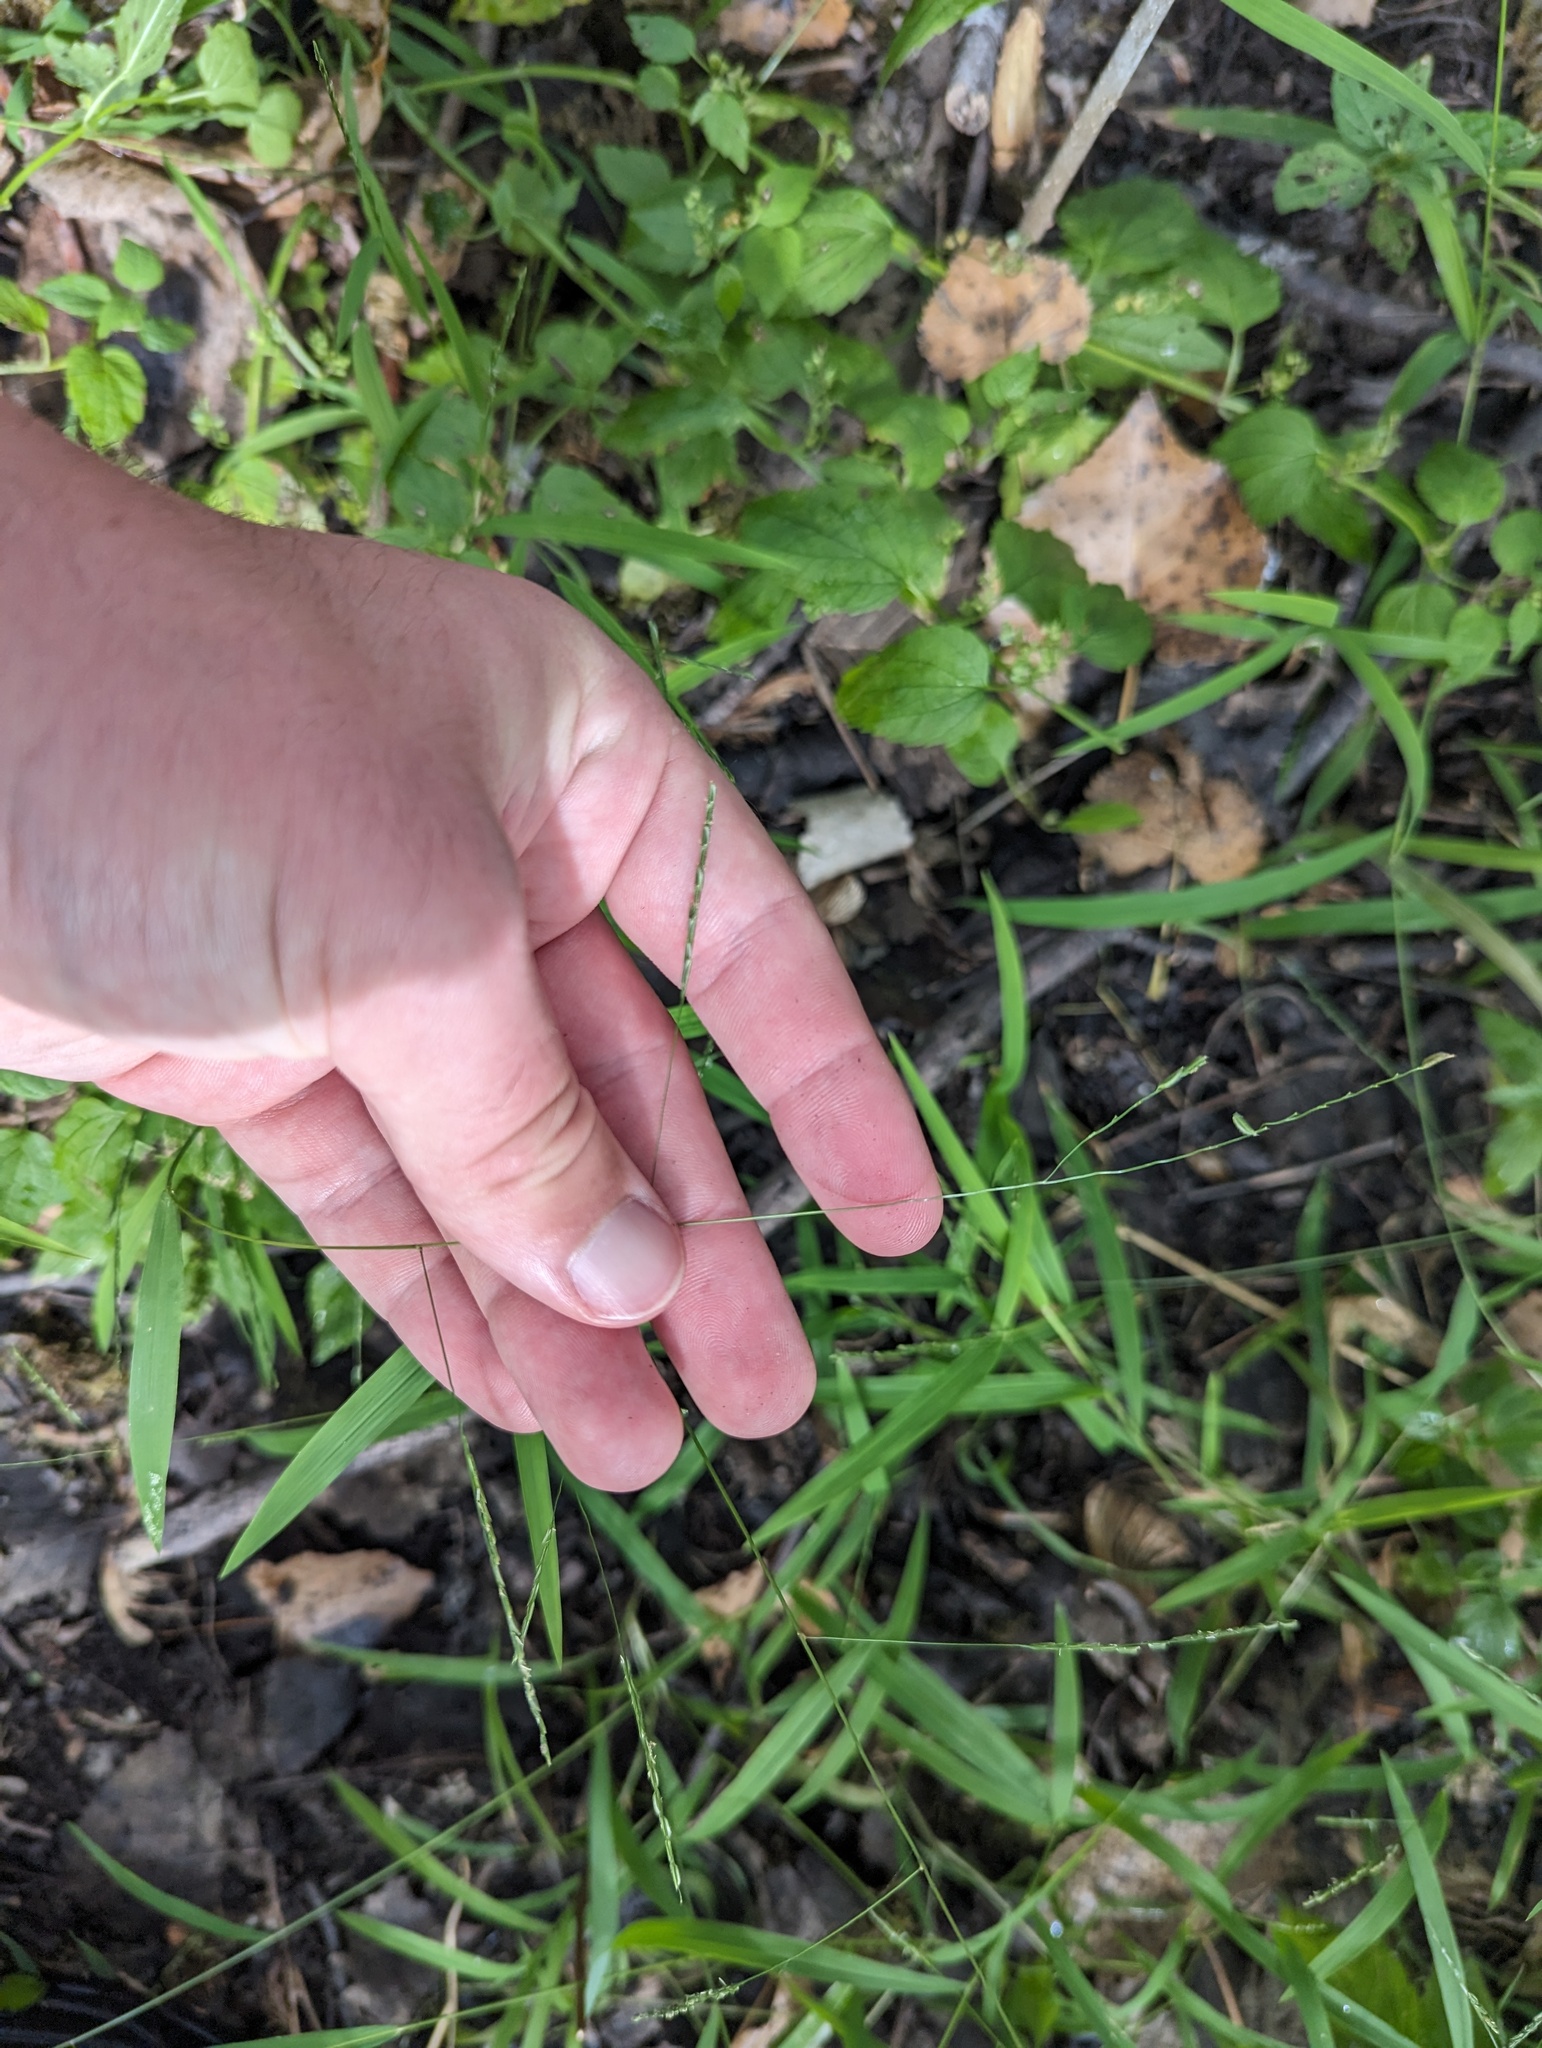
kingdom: Plantae
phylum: Tracheophyta
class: Liliopsida
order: Poales
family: Poaceae
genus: Leersia
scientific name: Leersia virginica
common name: White cutgrass
